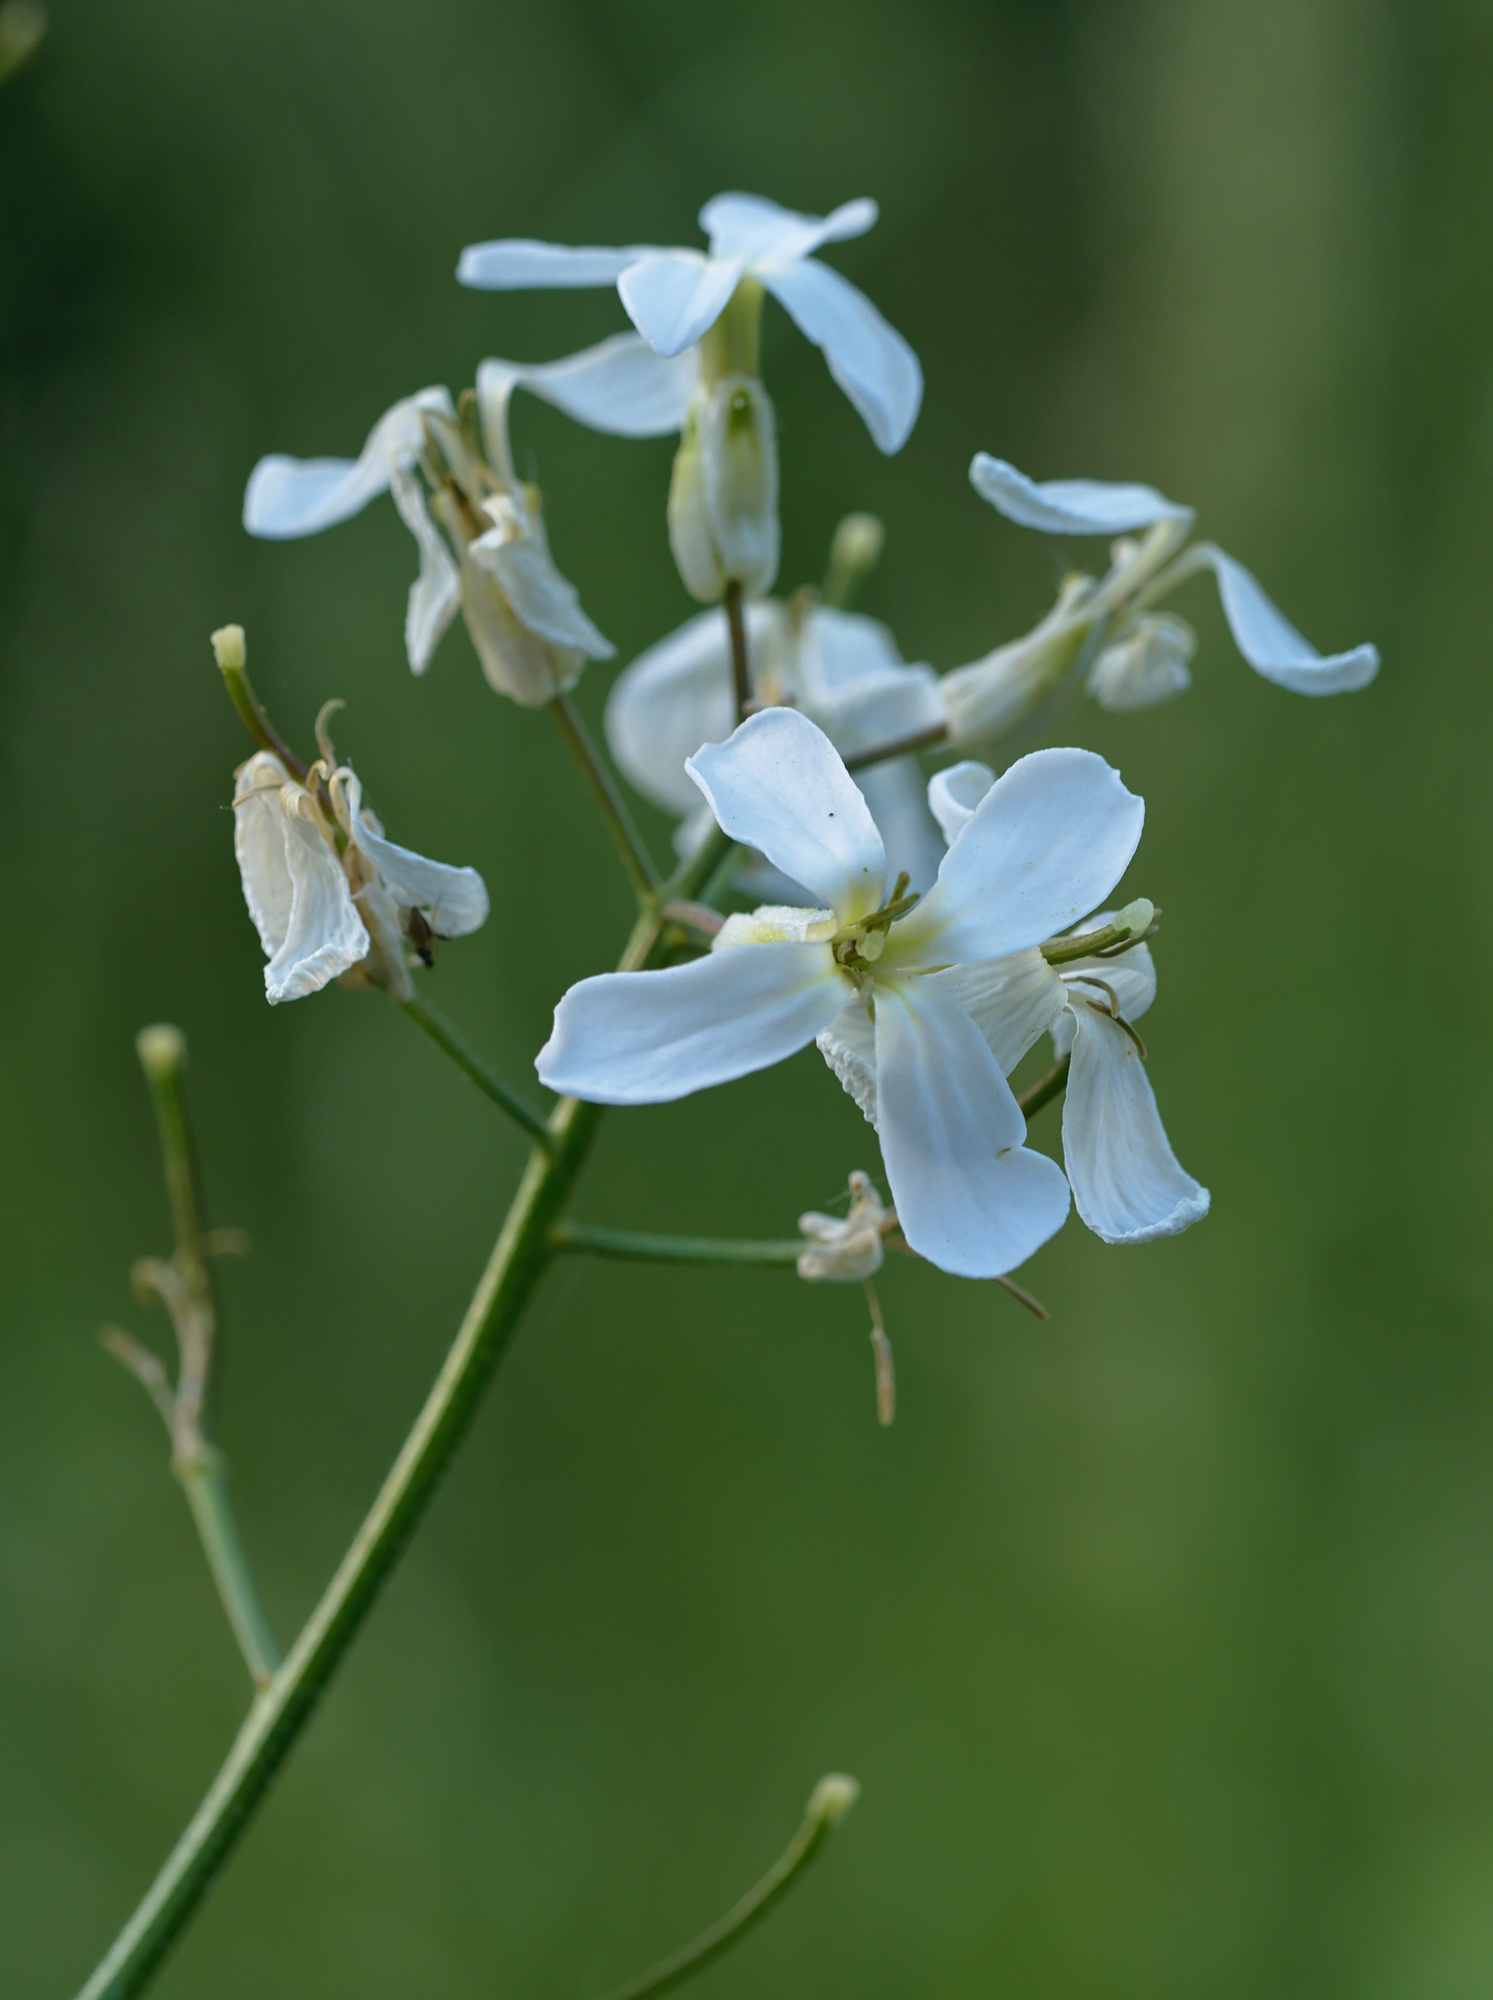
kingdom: Plantae
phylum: Tracheophyta
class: Magnoliopsida
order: Brassicales
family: Brassicaceae
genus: Hesperis
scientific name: Hesperis matronalis
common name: Dame's-violet
